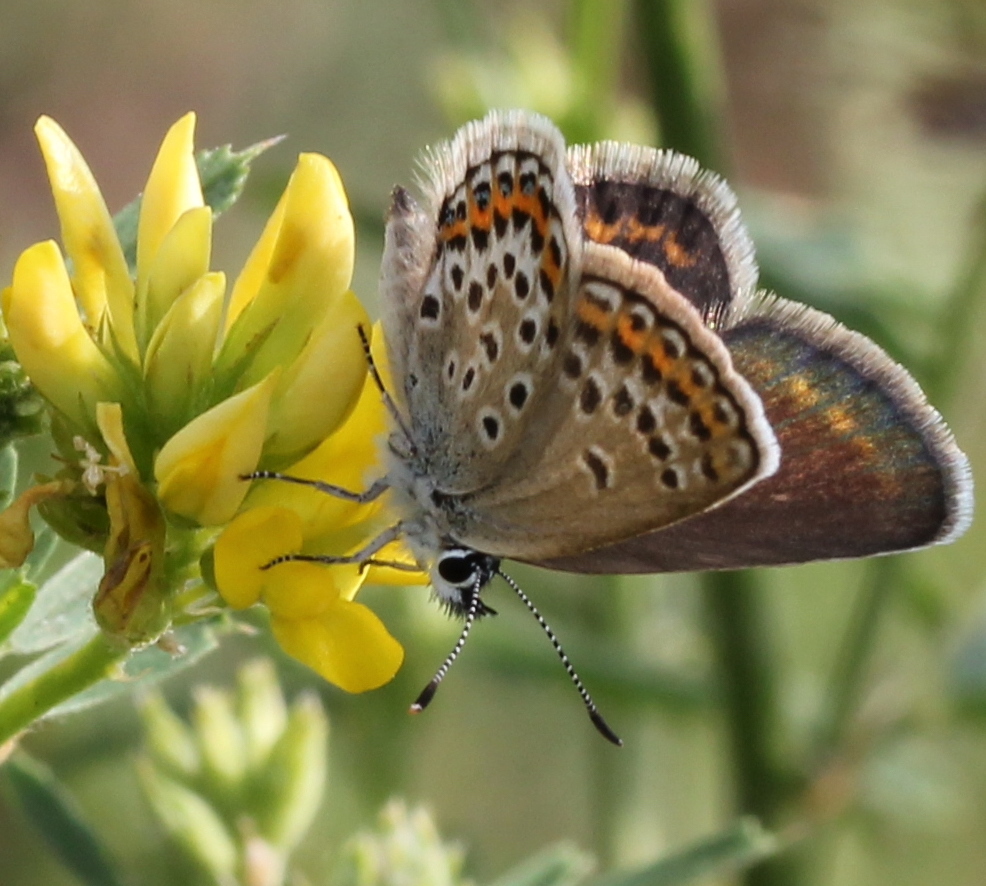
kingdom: Animalia
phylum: Arthropoda
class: Insecta
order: Lepidoptera
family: Lycaenidae
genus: Plebejus
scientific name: Plebejus argus
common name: Silver-studded blue
